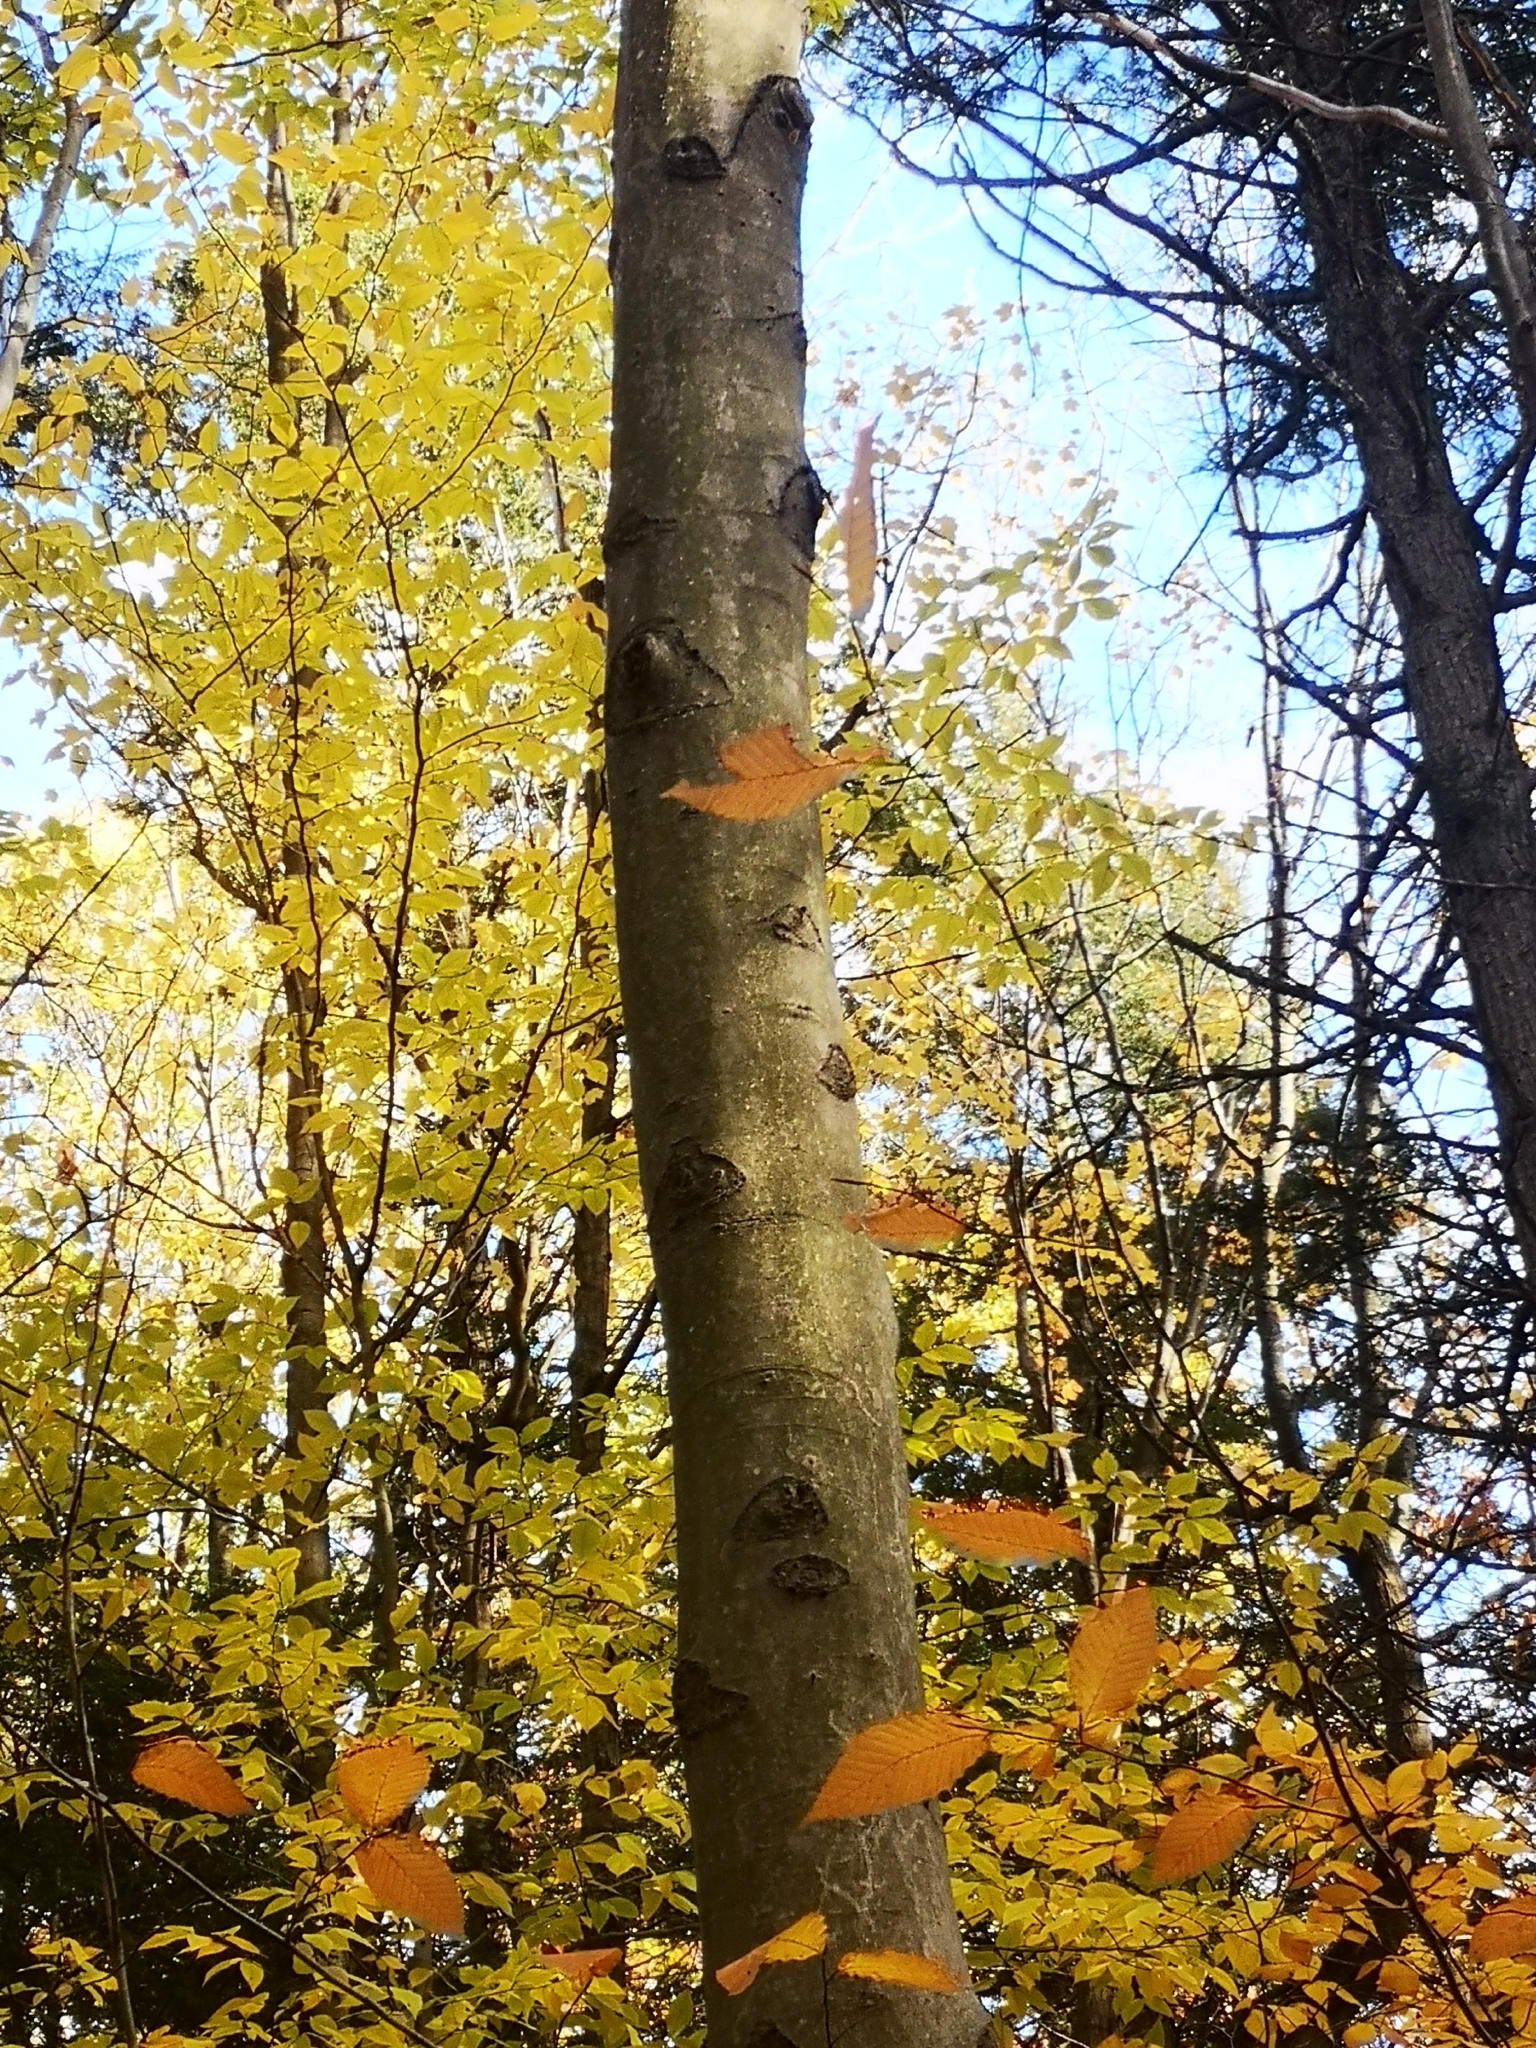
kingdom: Plantae
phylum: Tracheophyta
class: Magnoliopsida
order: Fagales
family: Fagaceae
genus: Fagus
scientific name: Fagus grandifolia
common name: American beech
